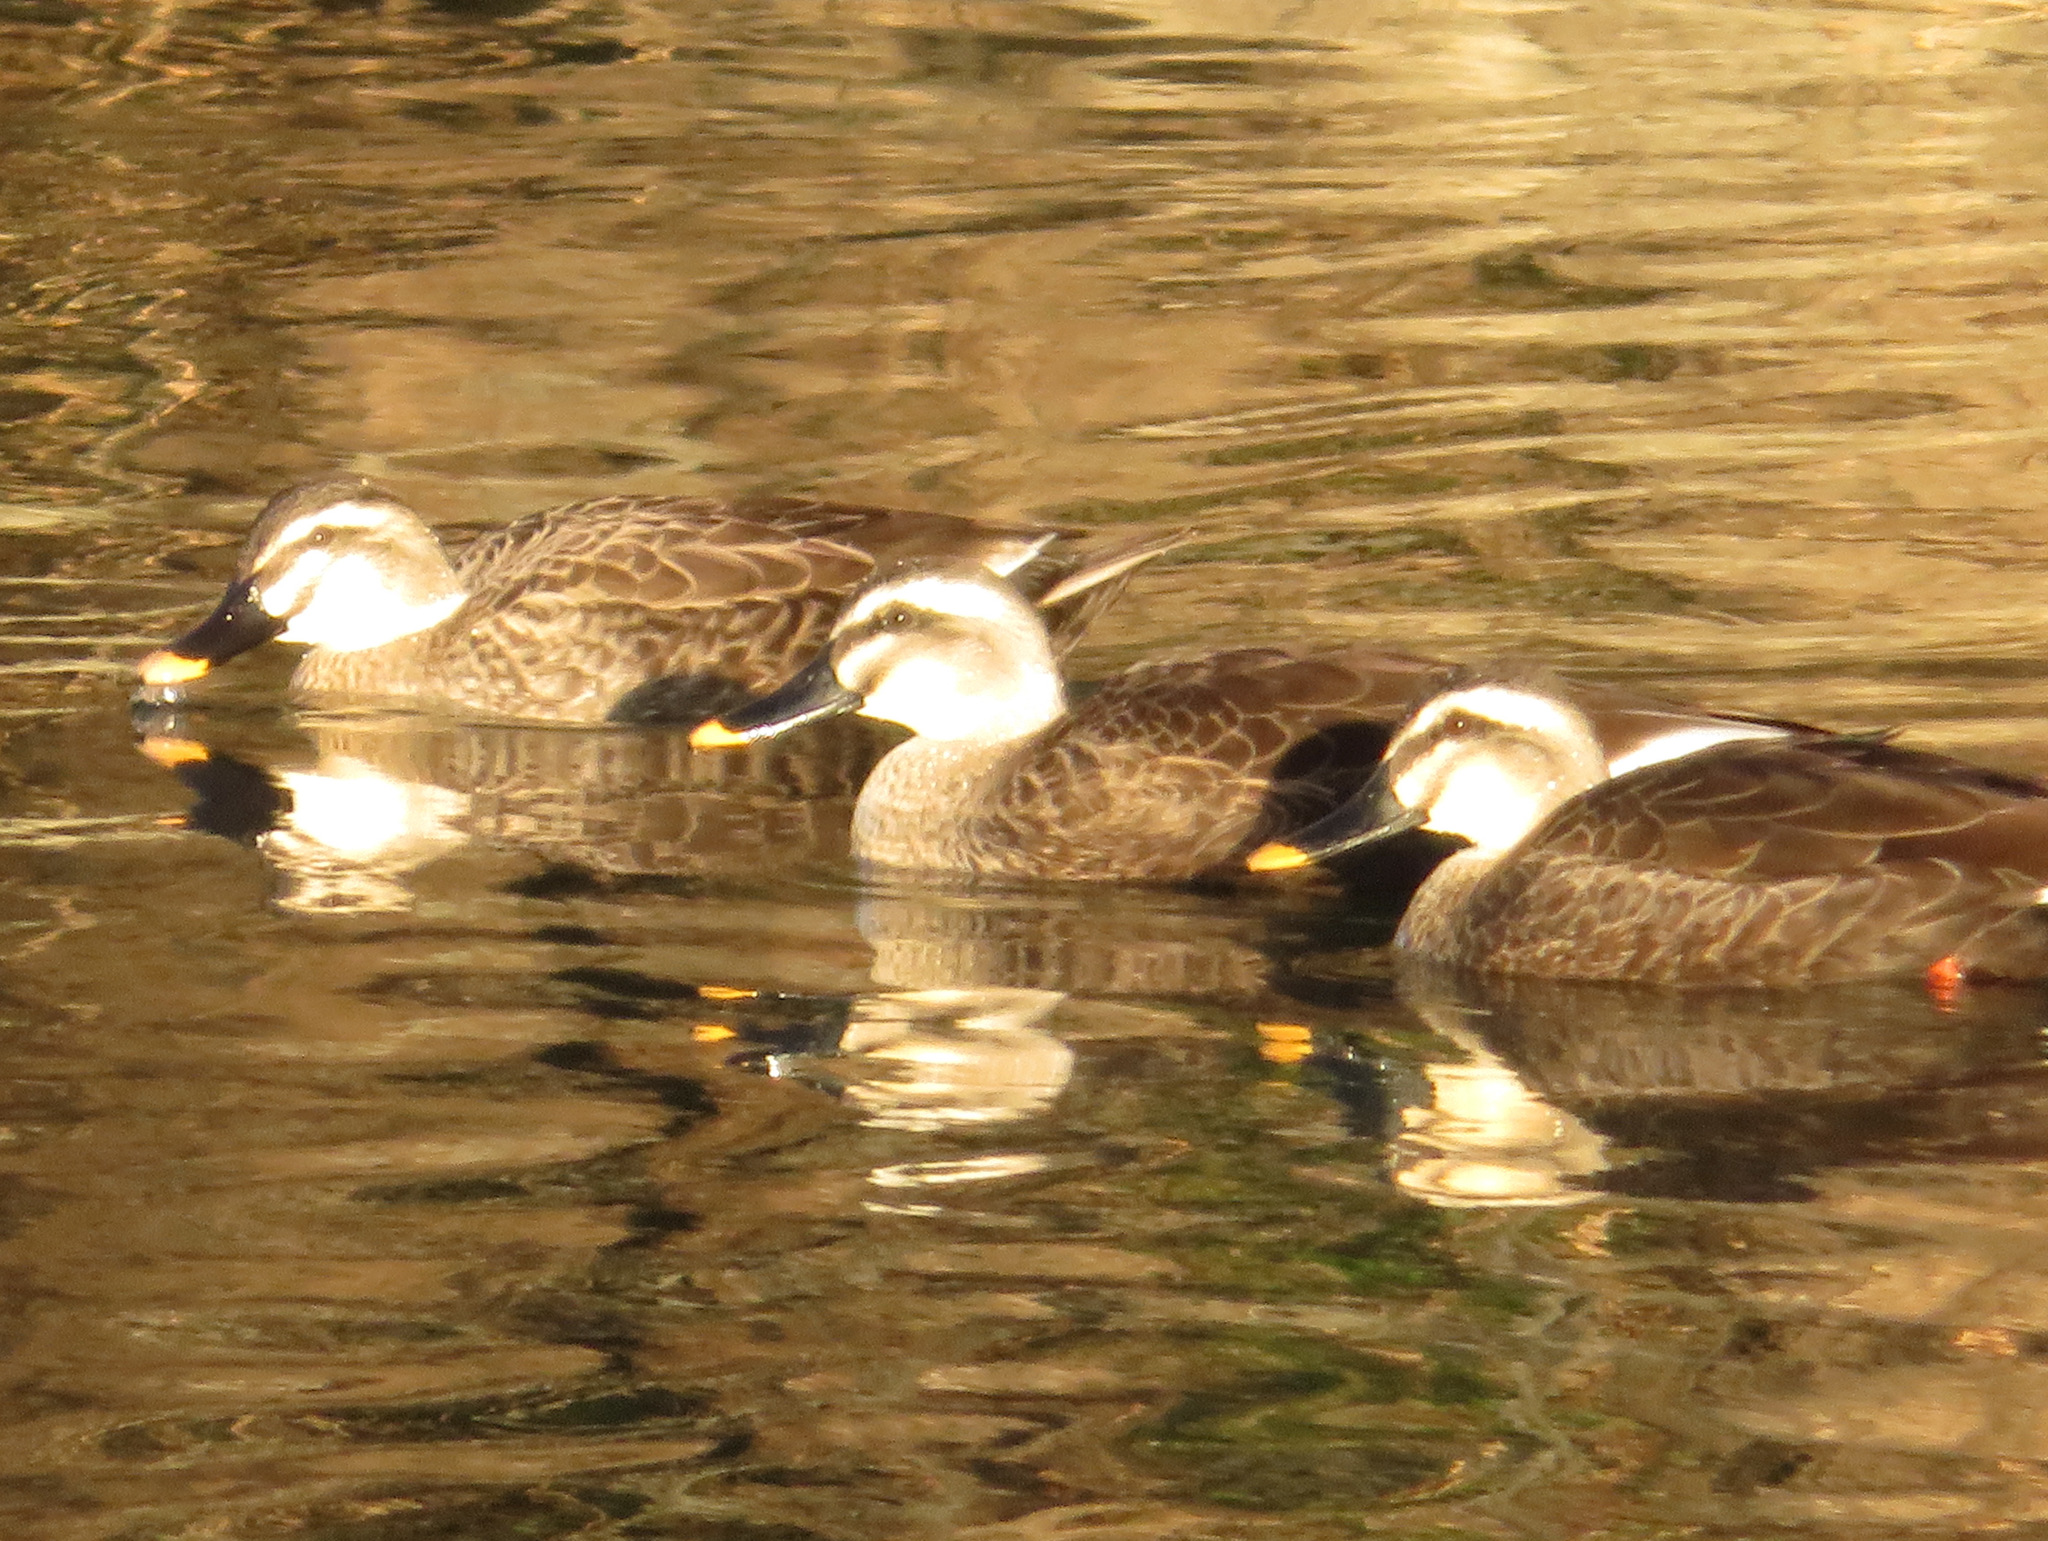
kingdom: Animalia
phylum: Chordata
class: Aves
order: Anseriformes
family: Anatidae
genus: Anas
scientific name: Anas zonorhyncha
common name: Eastern spot-billed duck
